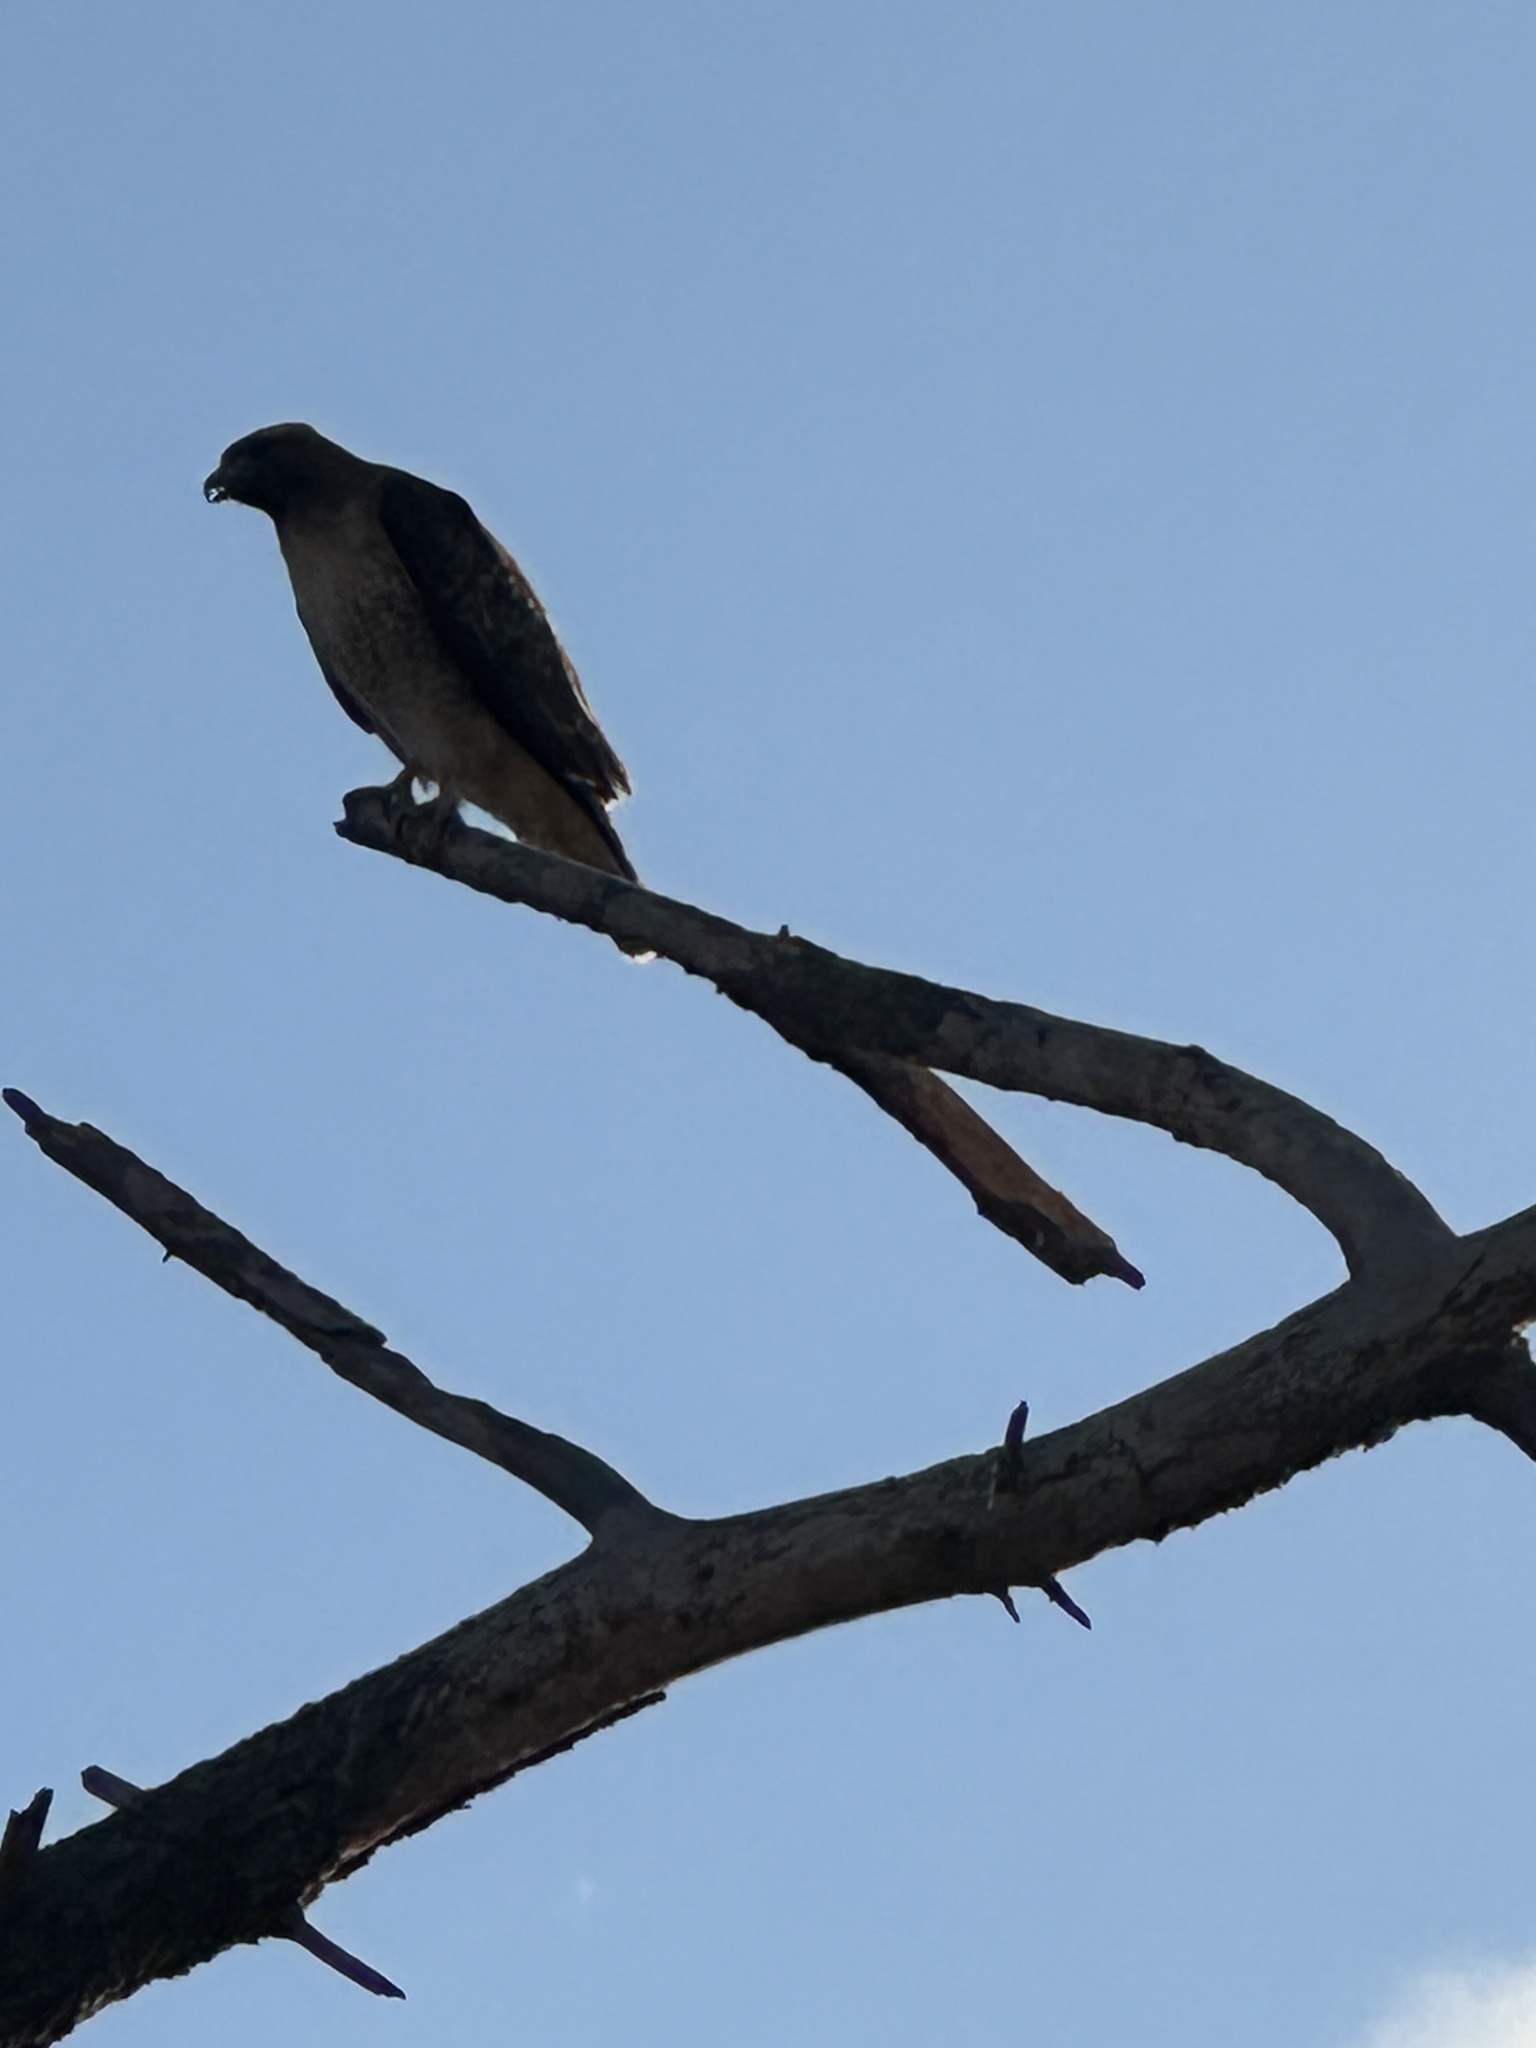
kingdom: Animalia
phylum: Chordata
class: Aves
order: Accipitriformes
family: Accipitridae
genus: Buteo
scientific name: Buteo jamaicensis
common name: Red-tailed hawk
